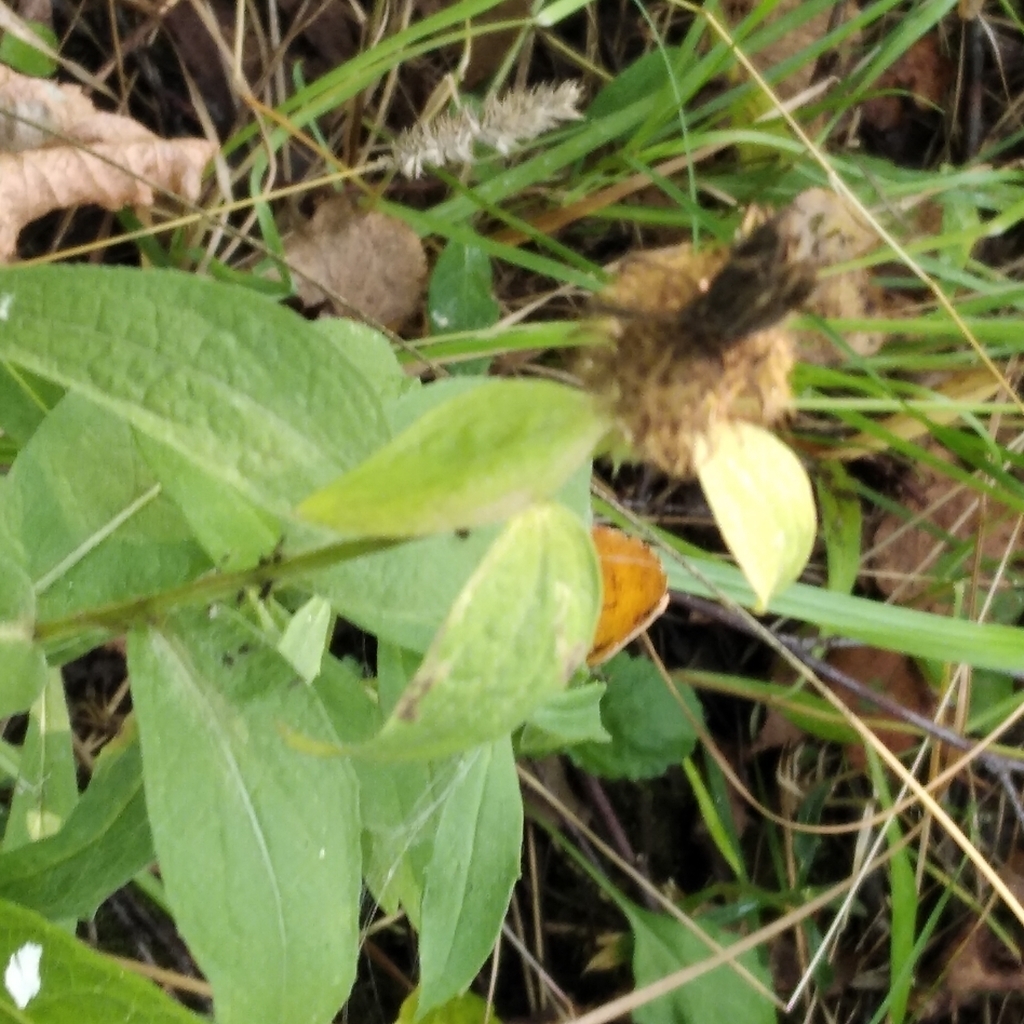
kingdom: Plantae
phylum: Tracheophyta
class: Magnoliopsida
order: Asterales
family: Asteraceae
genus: Centaurea
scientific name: Centaurea phrygia
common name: Wig knapweed
